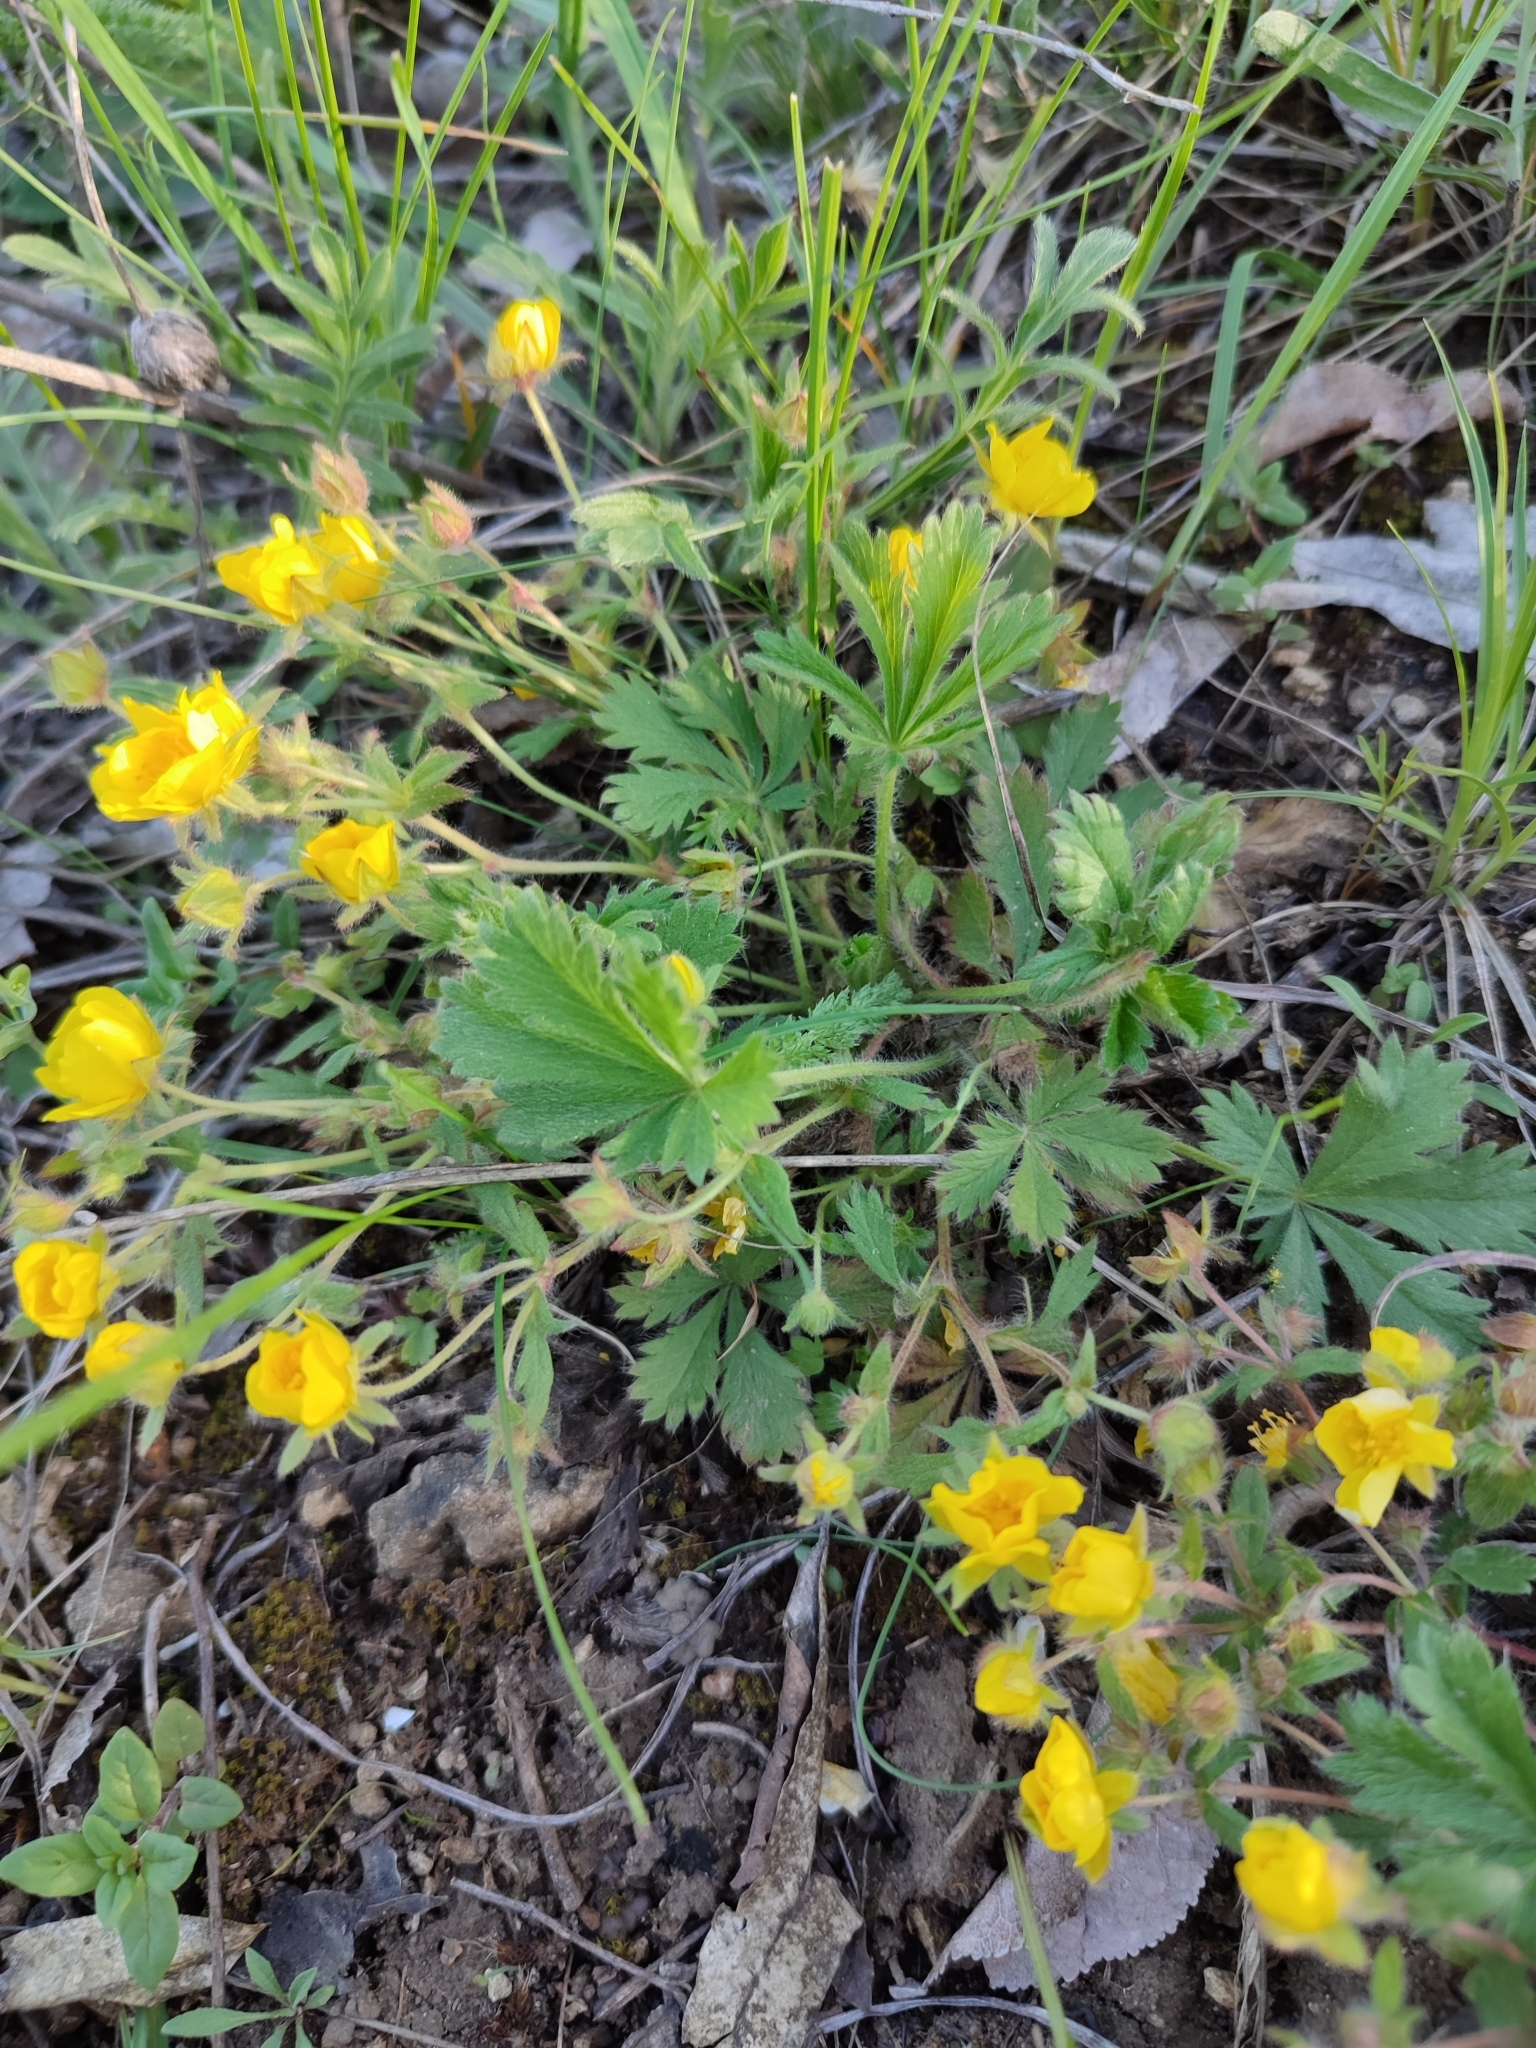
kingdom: Plantae
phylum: Tracheophyta
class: Magnoliopsida
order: Rosales
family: Rosaceae
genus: Potentilla
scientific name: Potentilla humifusa
